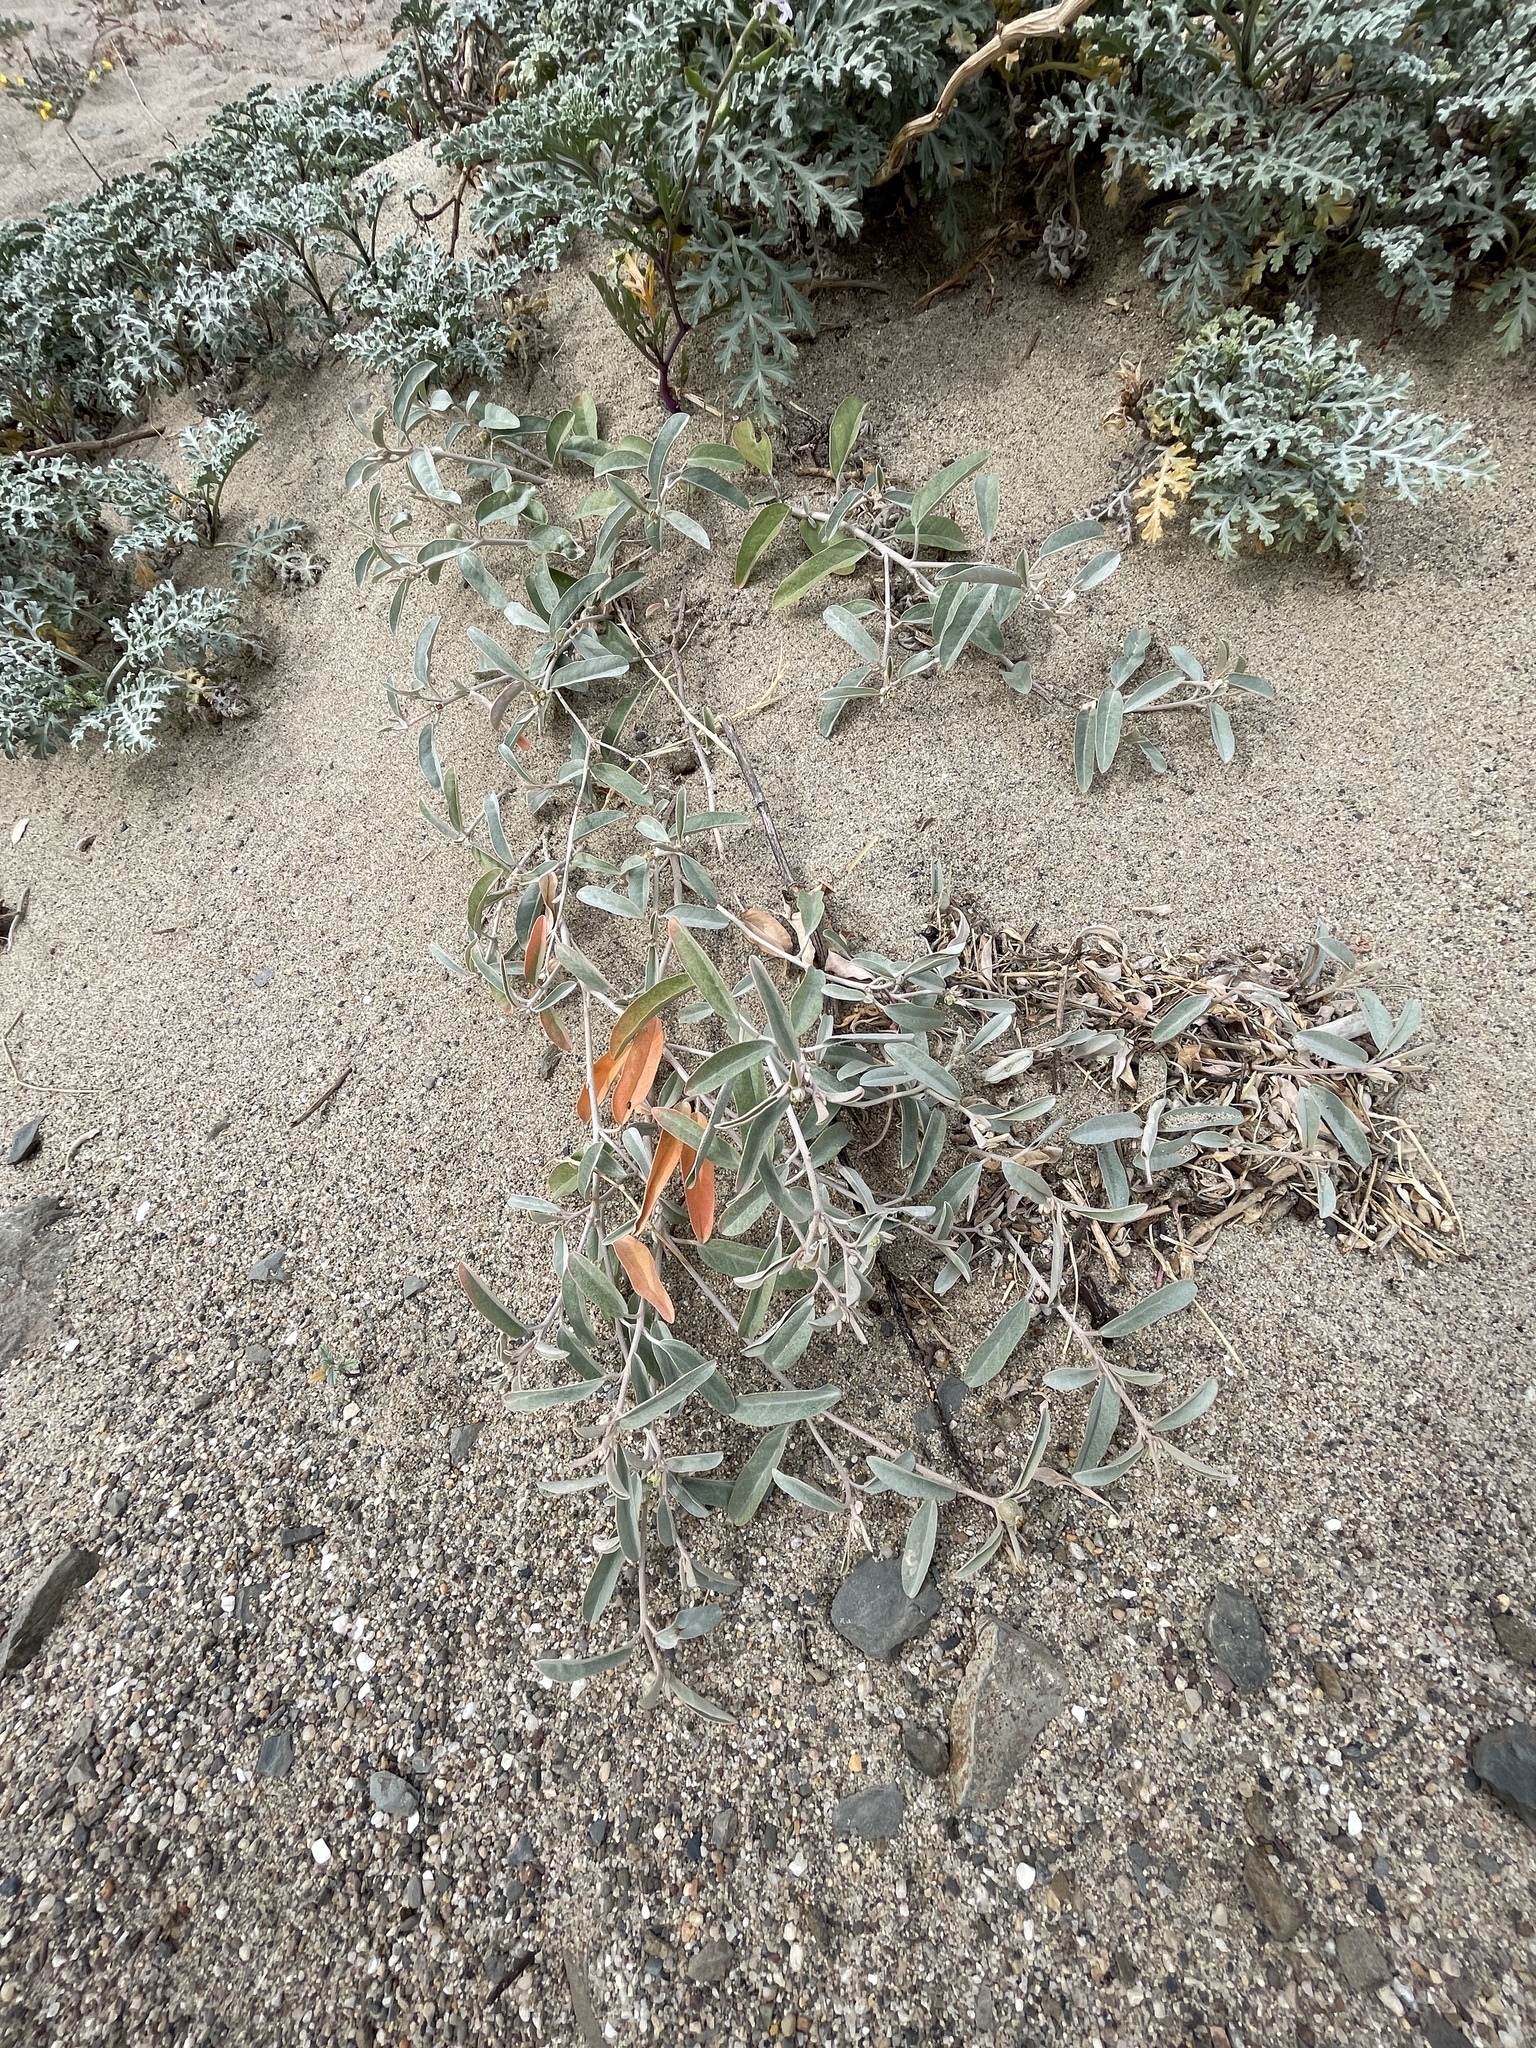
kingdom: Plantae
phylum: Tracheophyta
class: Magnoliopsida
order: Malpighiales
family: Euphorbiaceae
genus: Croton
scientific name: Croton californicus
